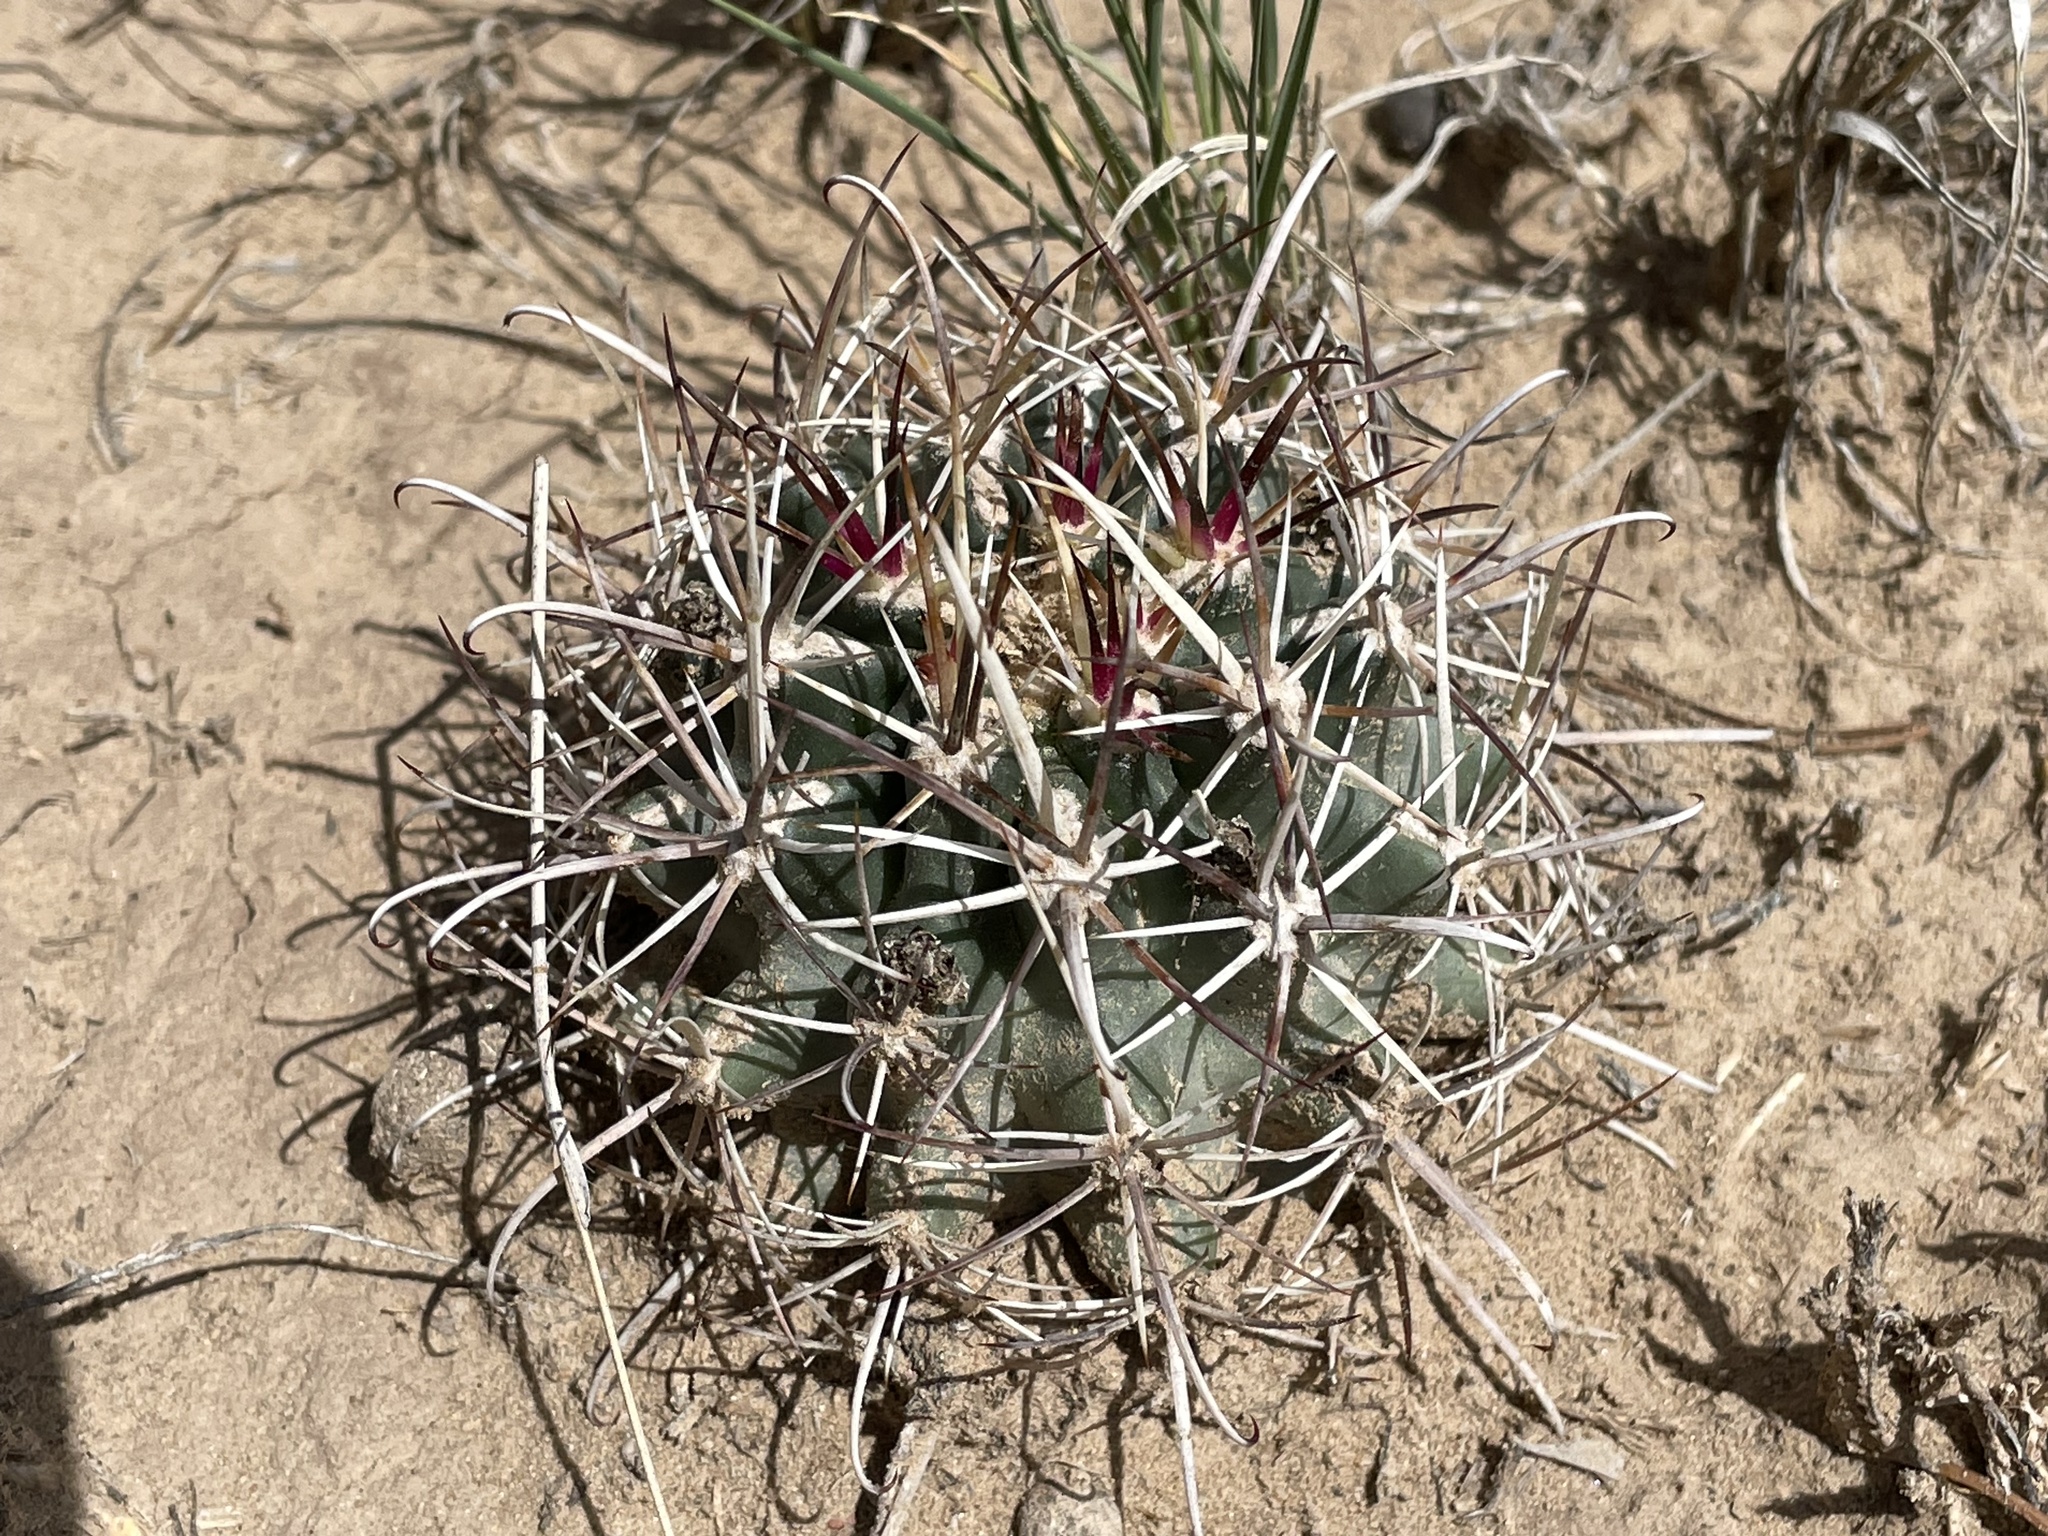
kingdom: Plantae
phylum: Tracheophyta
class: Magnoliopsida
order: Caryophyllales
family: Cactaceae
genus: Sclerocactus
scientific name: Sclerocactus cloverae
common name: Clover's eagle-claw cactus
